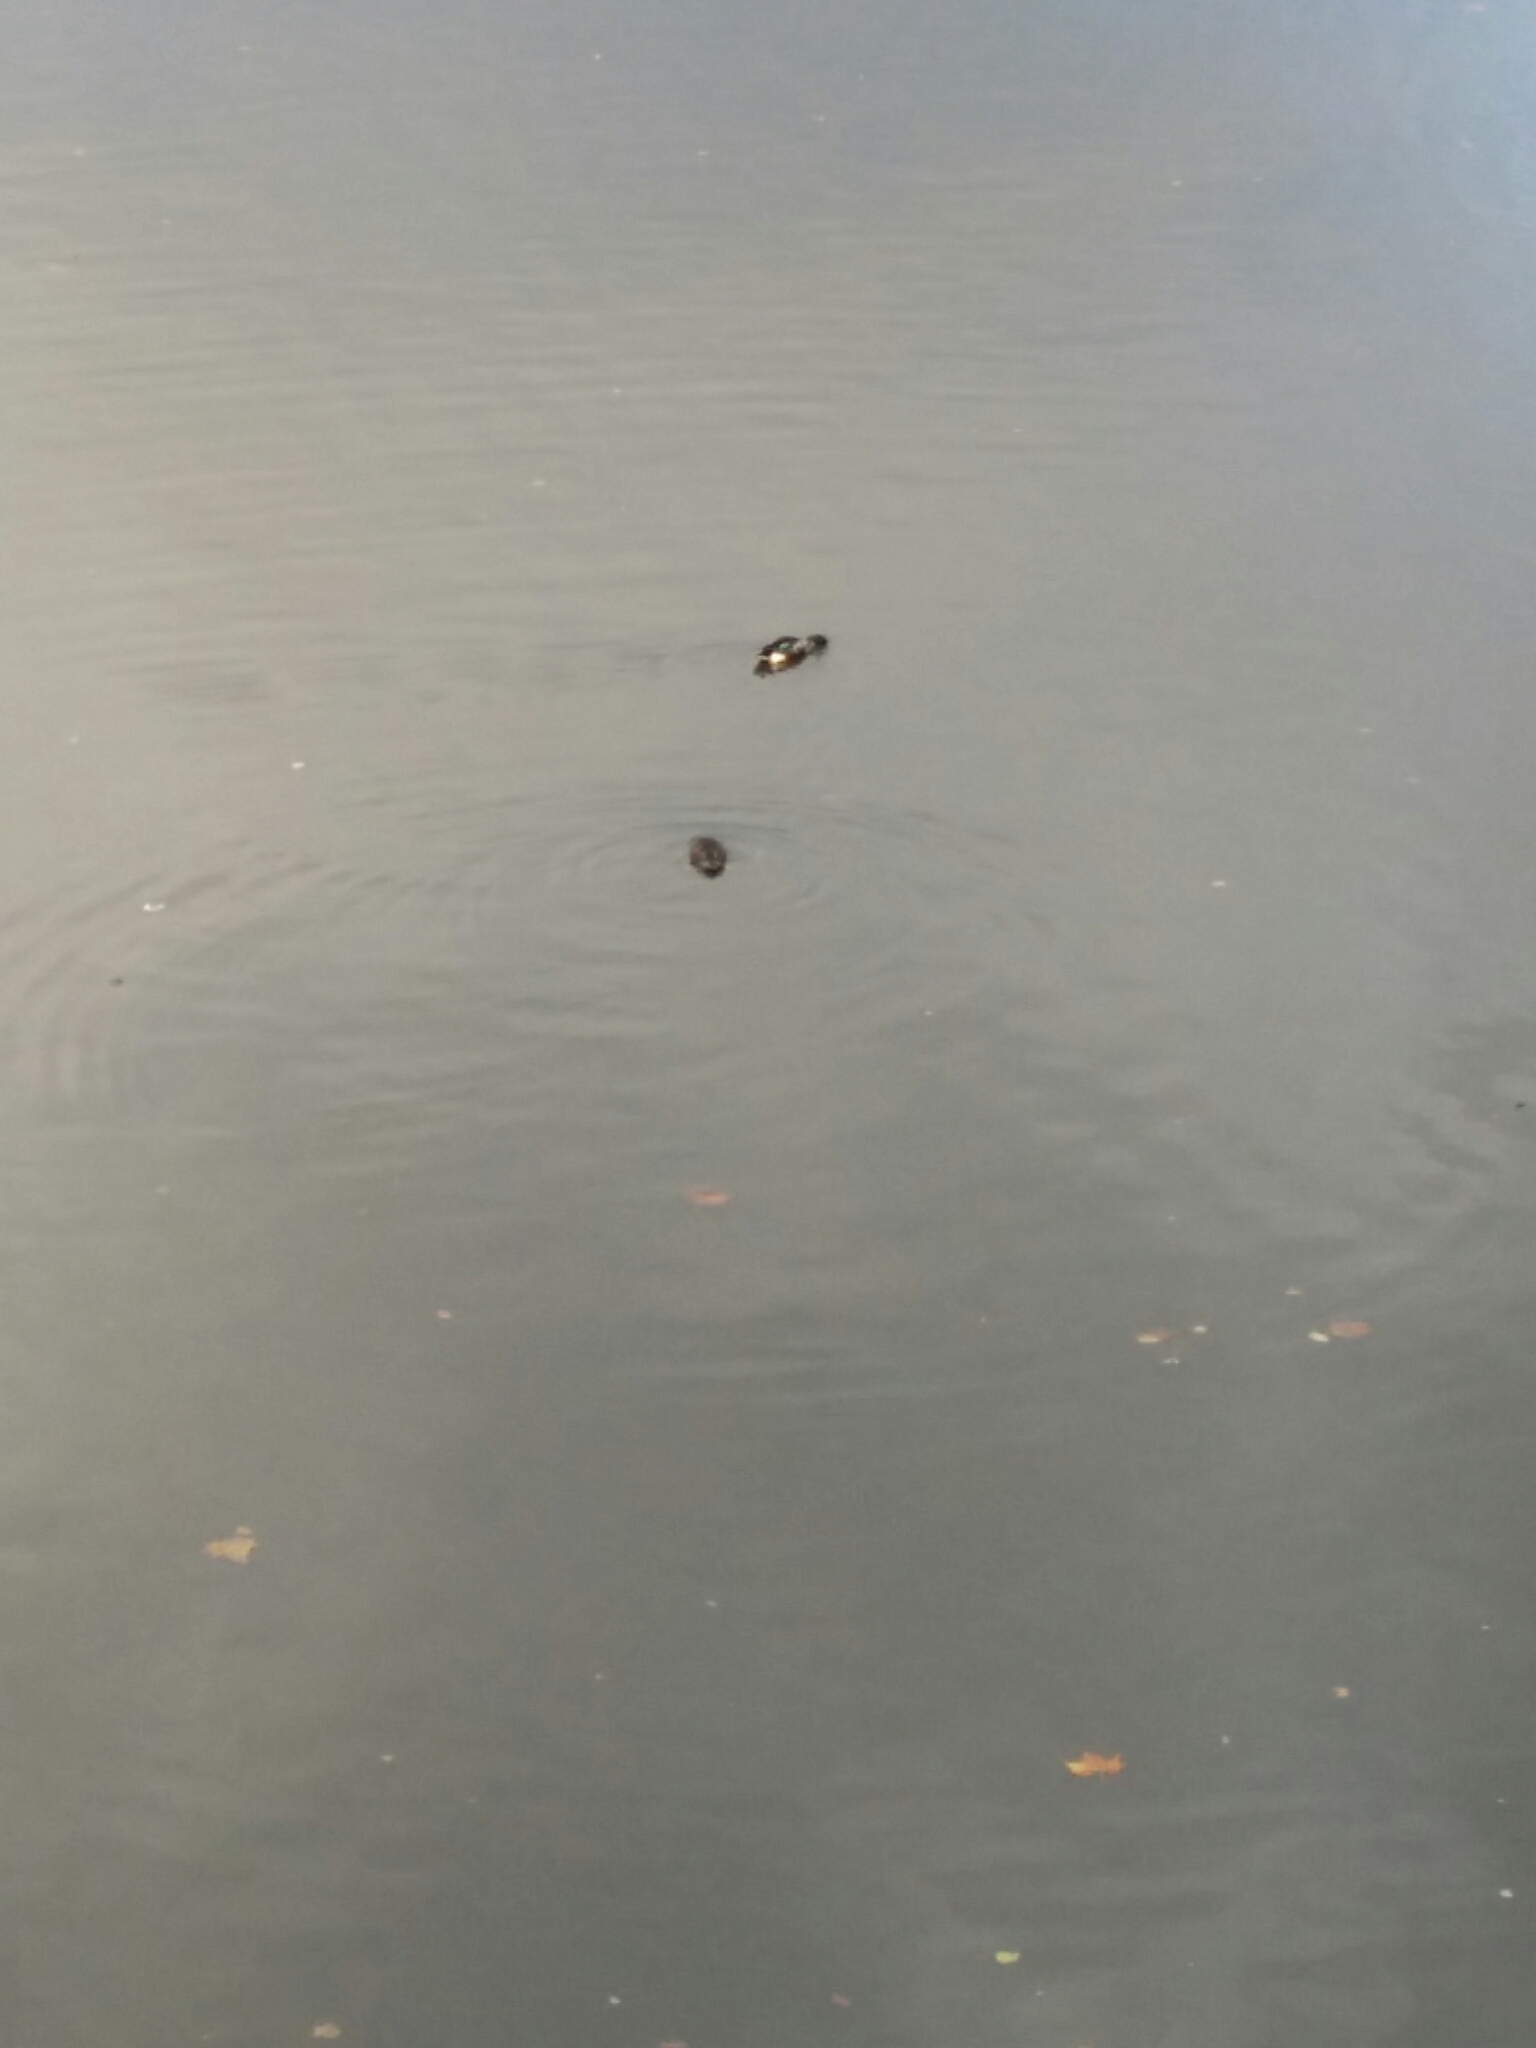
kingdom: Animalia
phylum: Chordata
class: Aves
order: Anseriformes
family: Anatidae
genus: Spatula
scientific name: Spatula clypeata
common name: Northern shoveler
